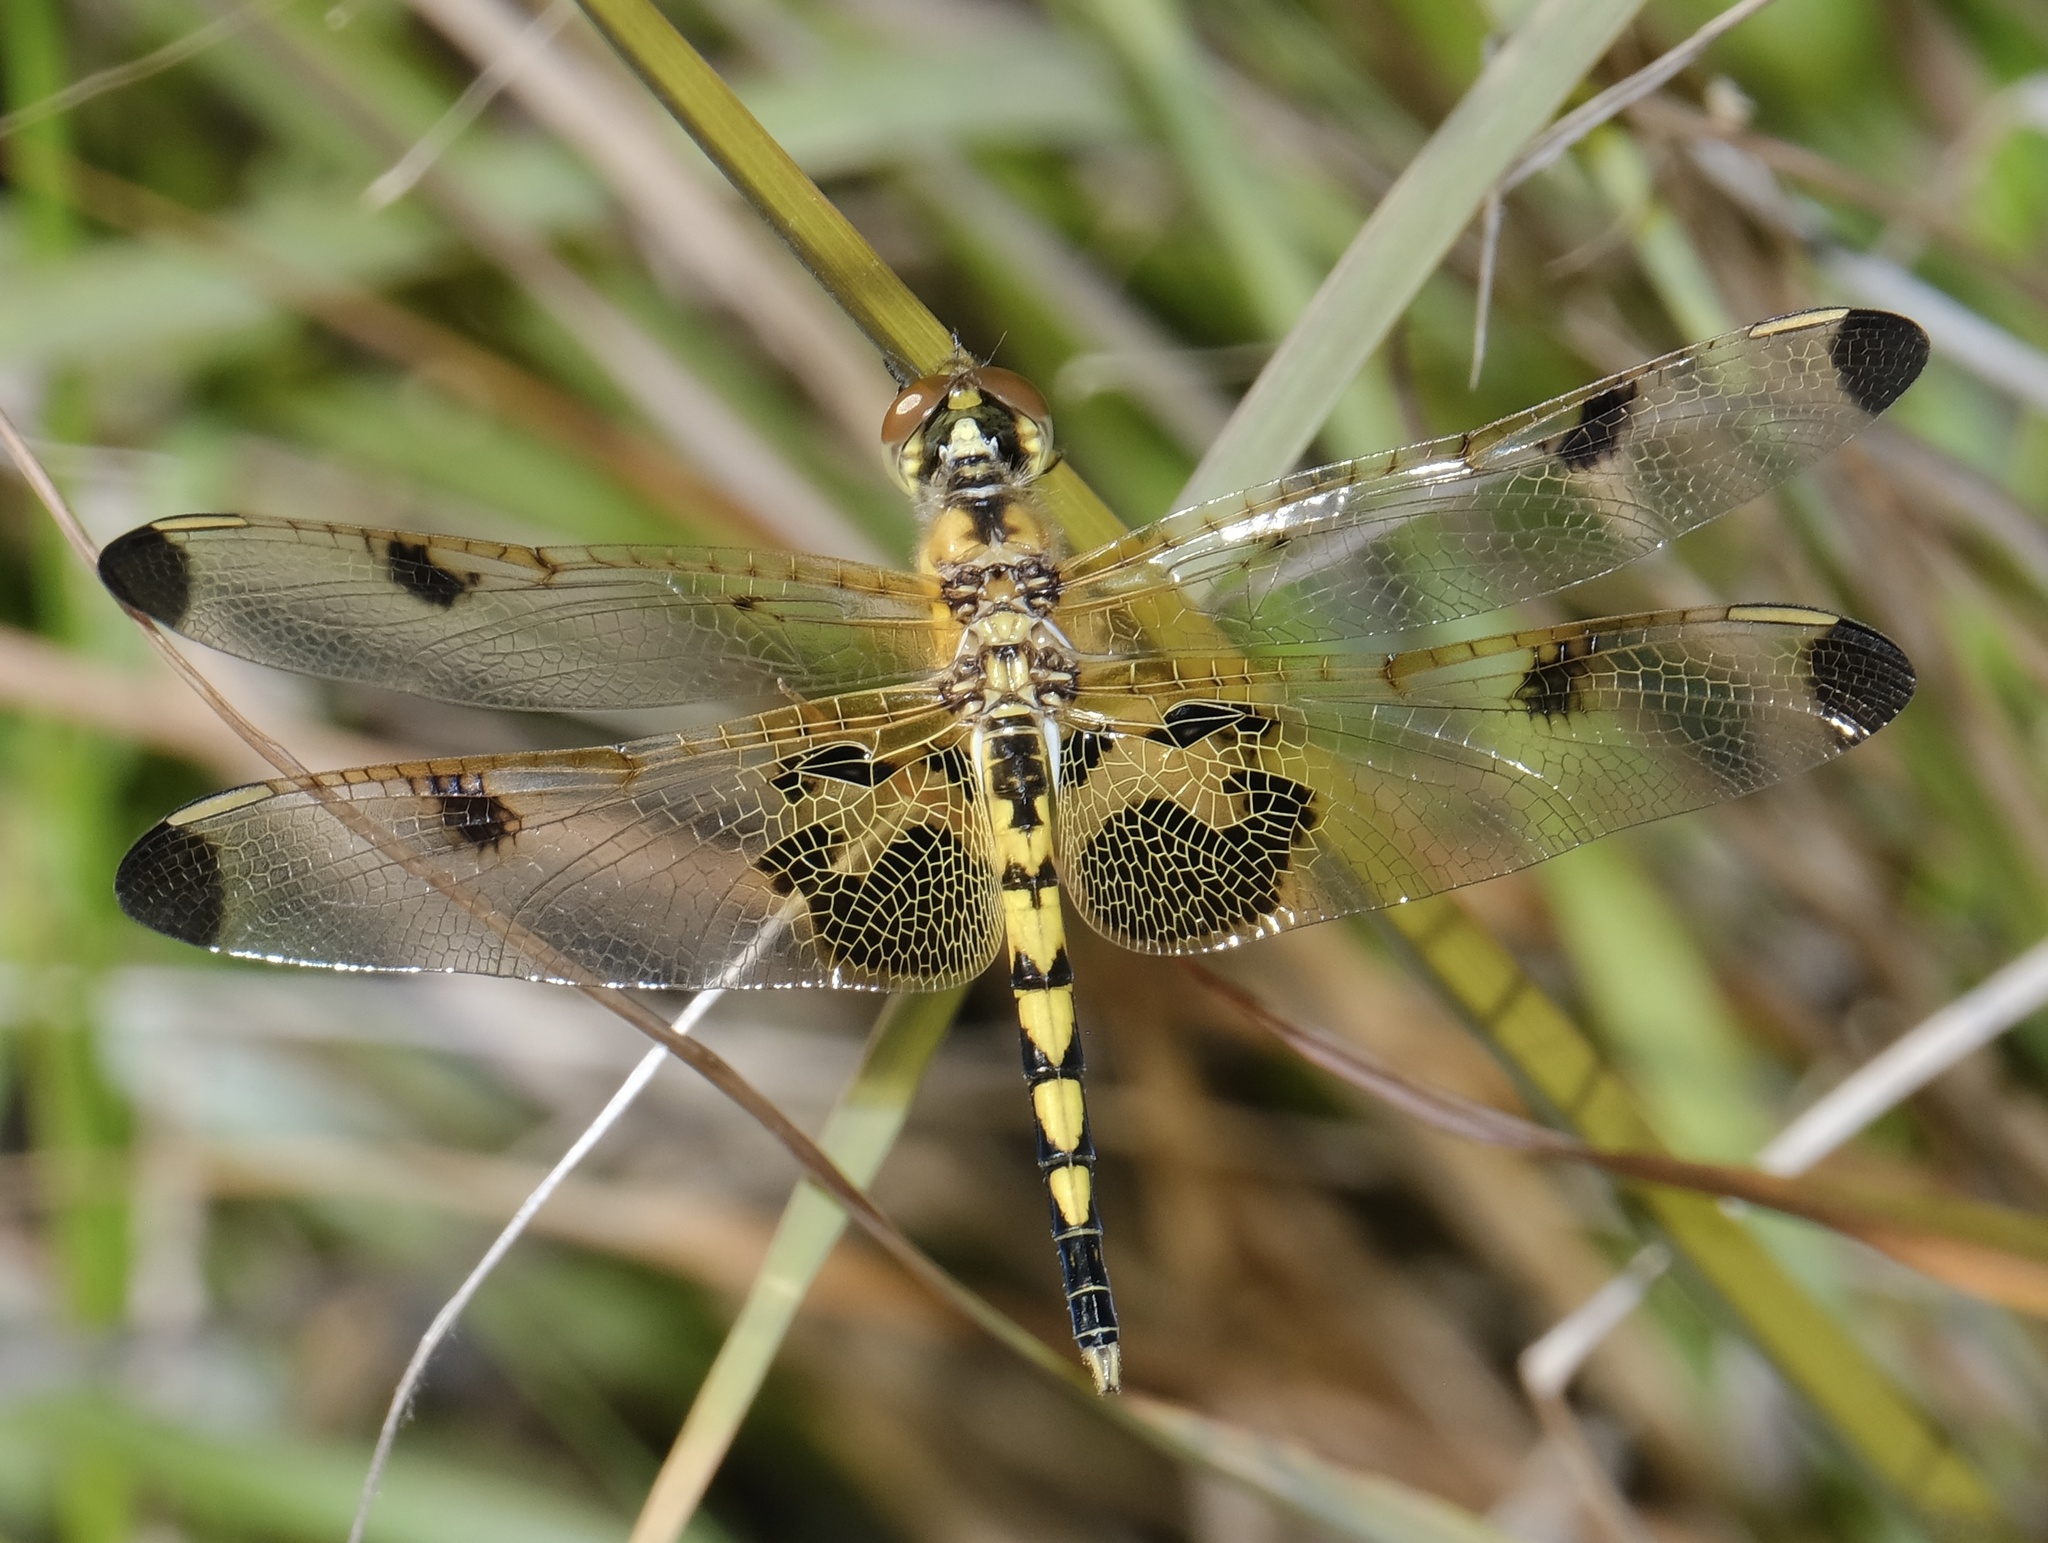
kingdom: Animalia
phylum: Arthropoda
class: Insecta
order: Odonata
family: Libellulidae
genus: Celithemis
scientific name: Celithemis elisa
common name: Calico pennant
